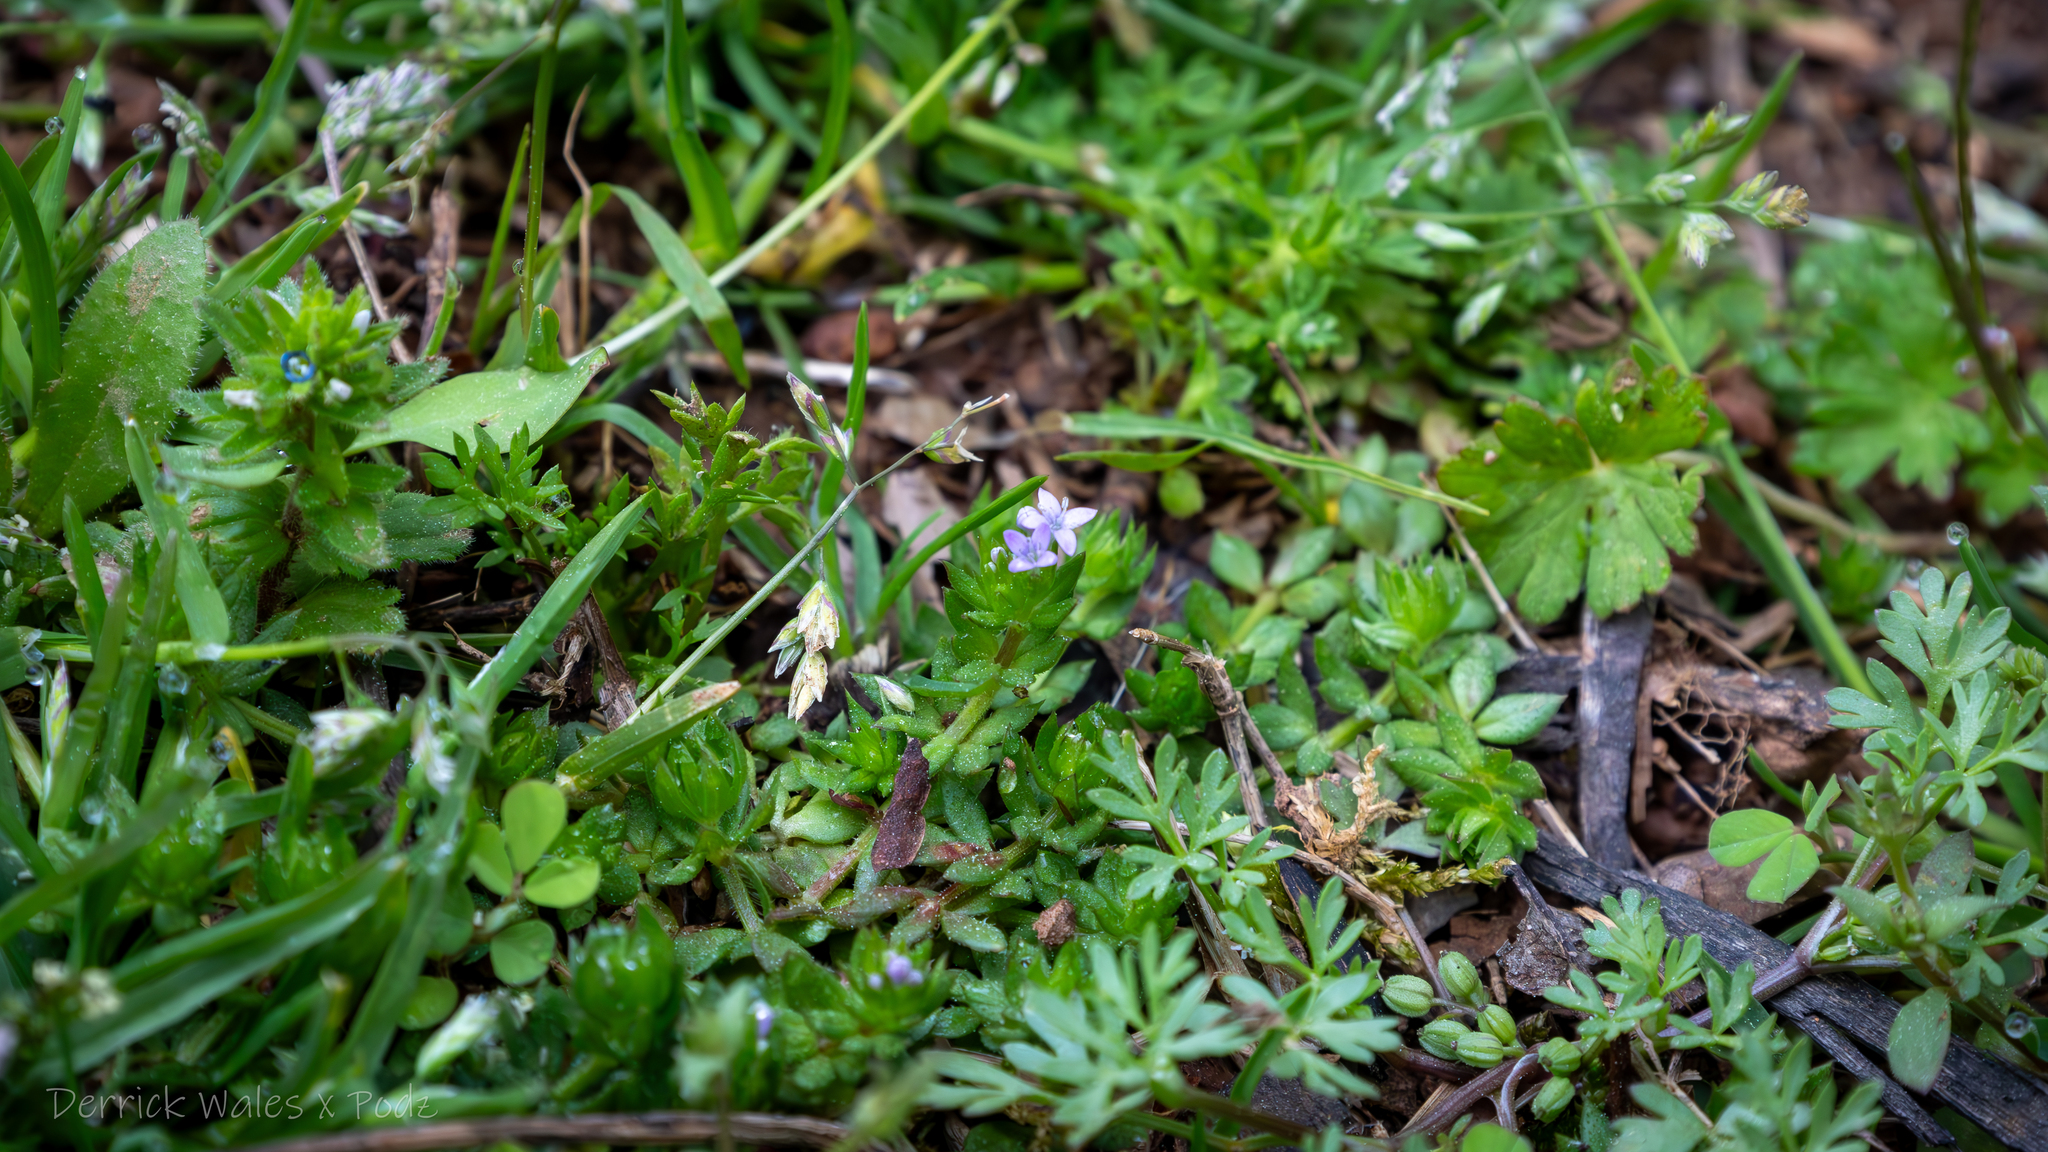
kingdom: Plantae
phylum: Tracheophyta
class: Magnoliopsida
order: Gentianales
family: Rubiaceae
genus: Sherardia
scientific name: Sherardia arvensis
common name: Field madder
